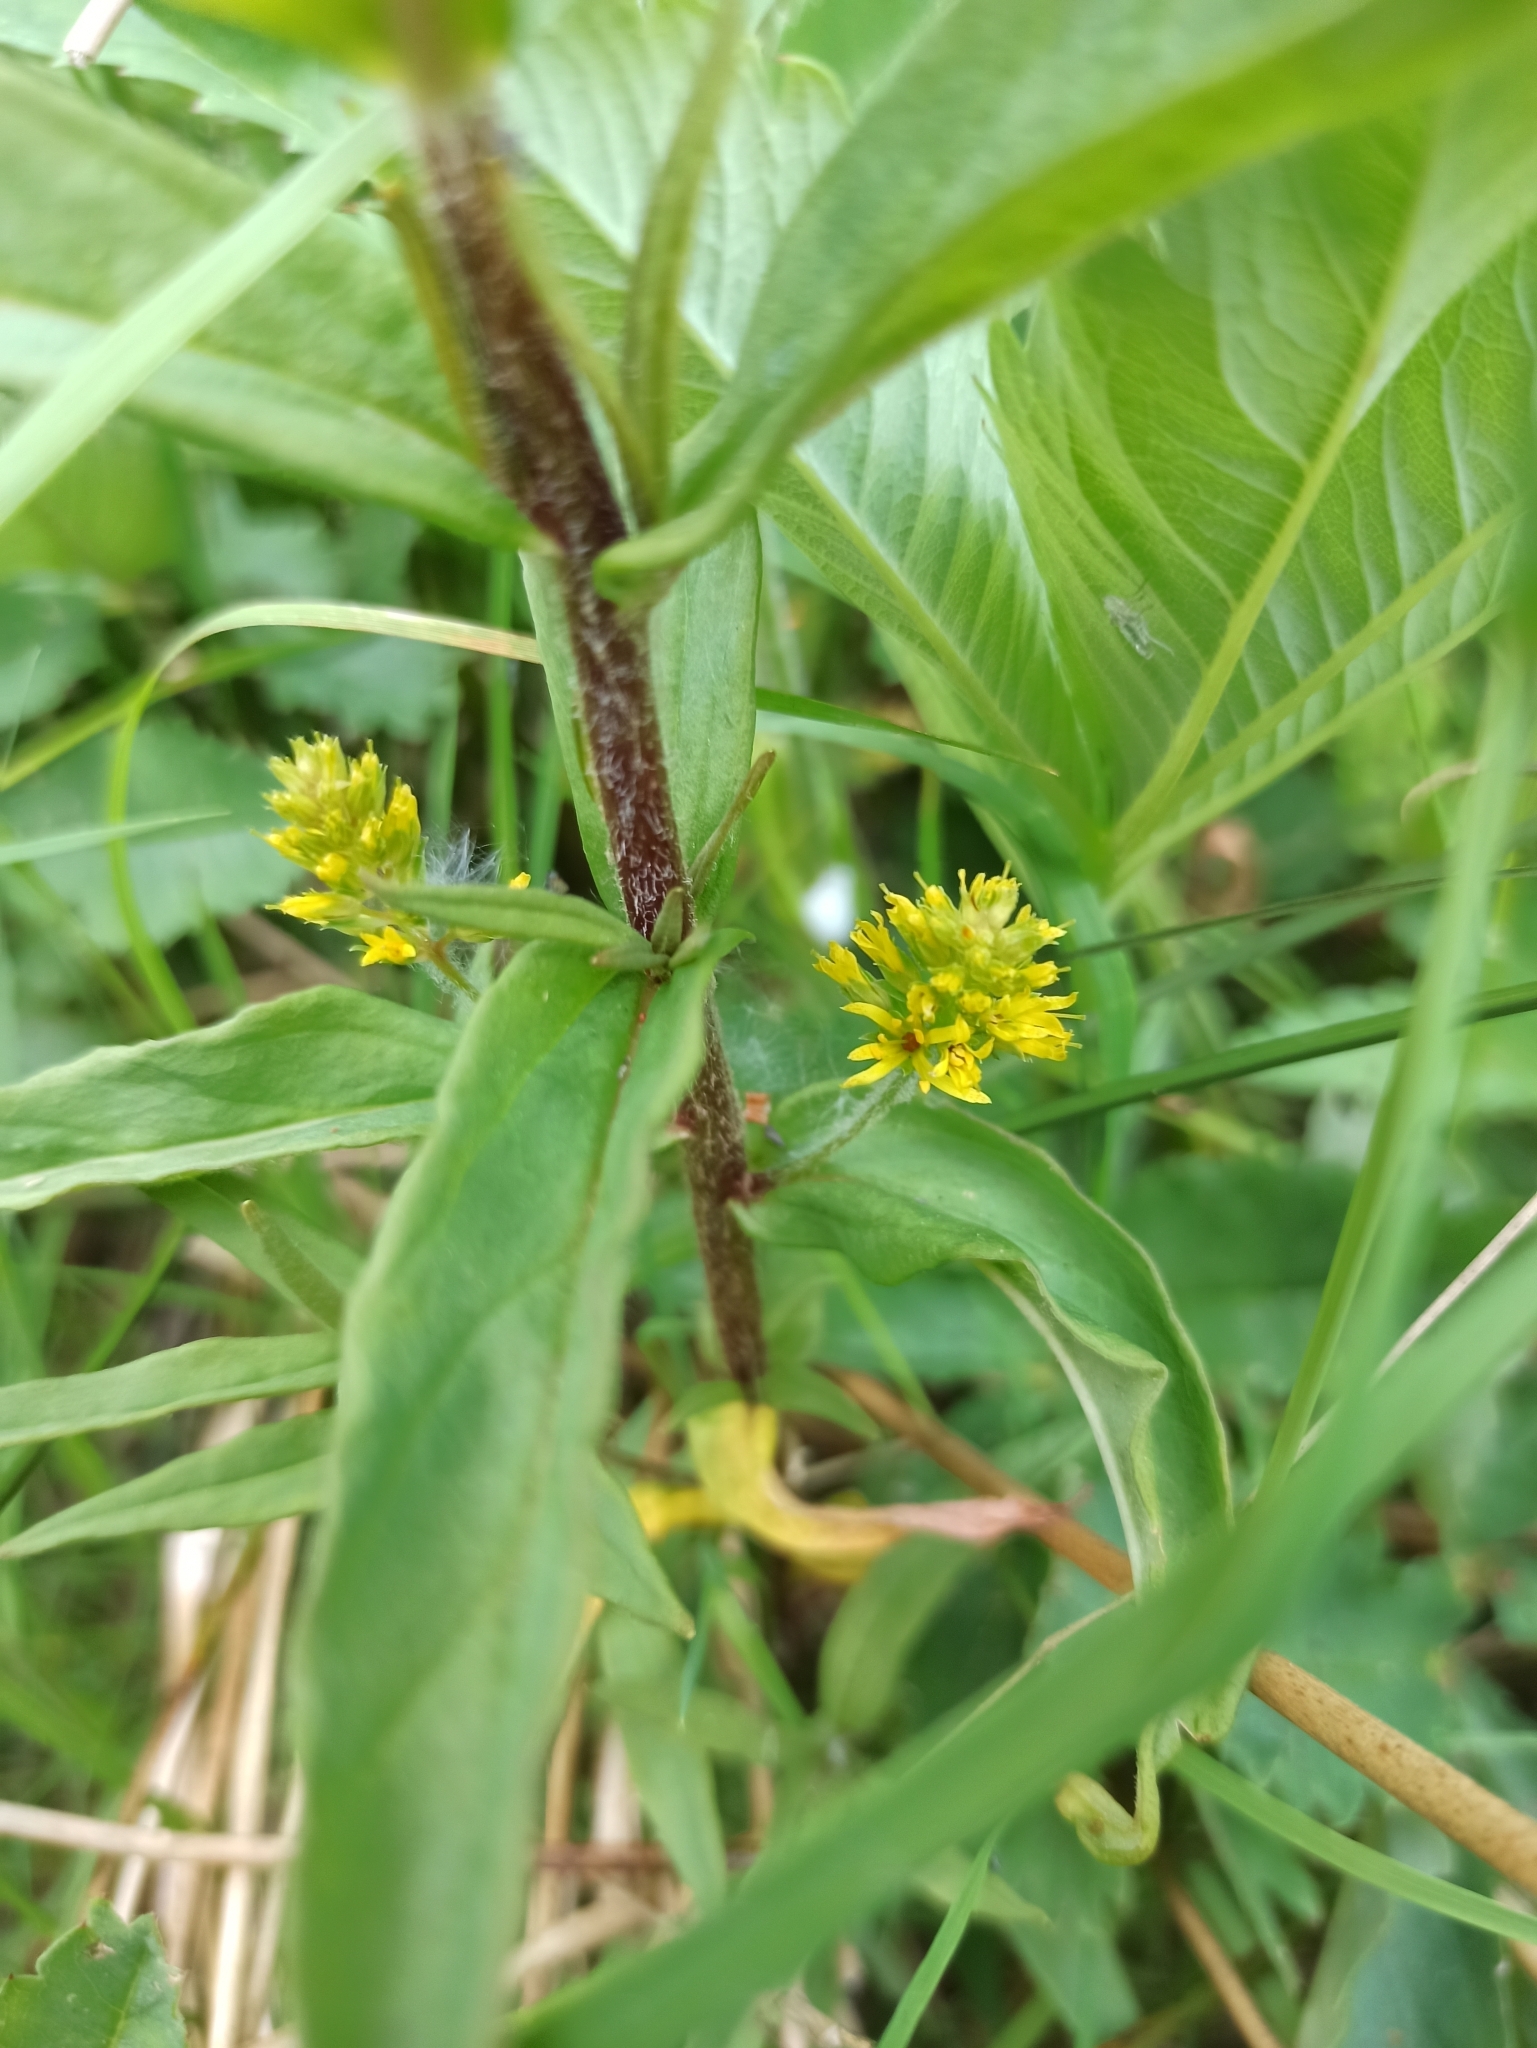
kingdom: Plantae
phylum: Tracheophyta
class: Magnoliopsida
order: Ericales
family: Primulaceae
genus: Lysimachia
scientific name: Lysimachia thyrsiflora
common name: Tufted loosestrife
